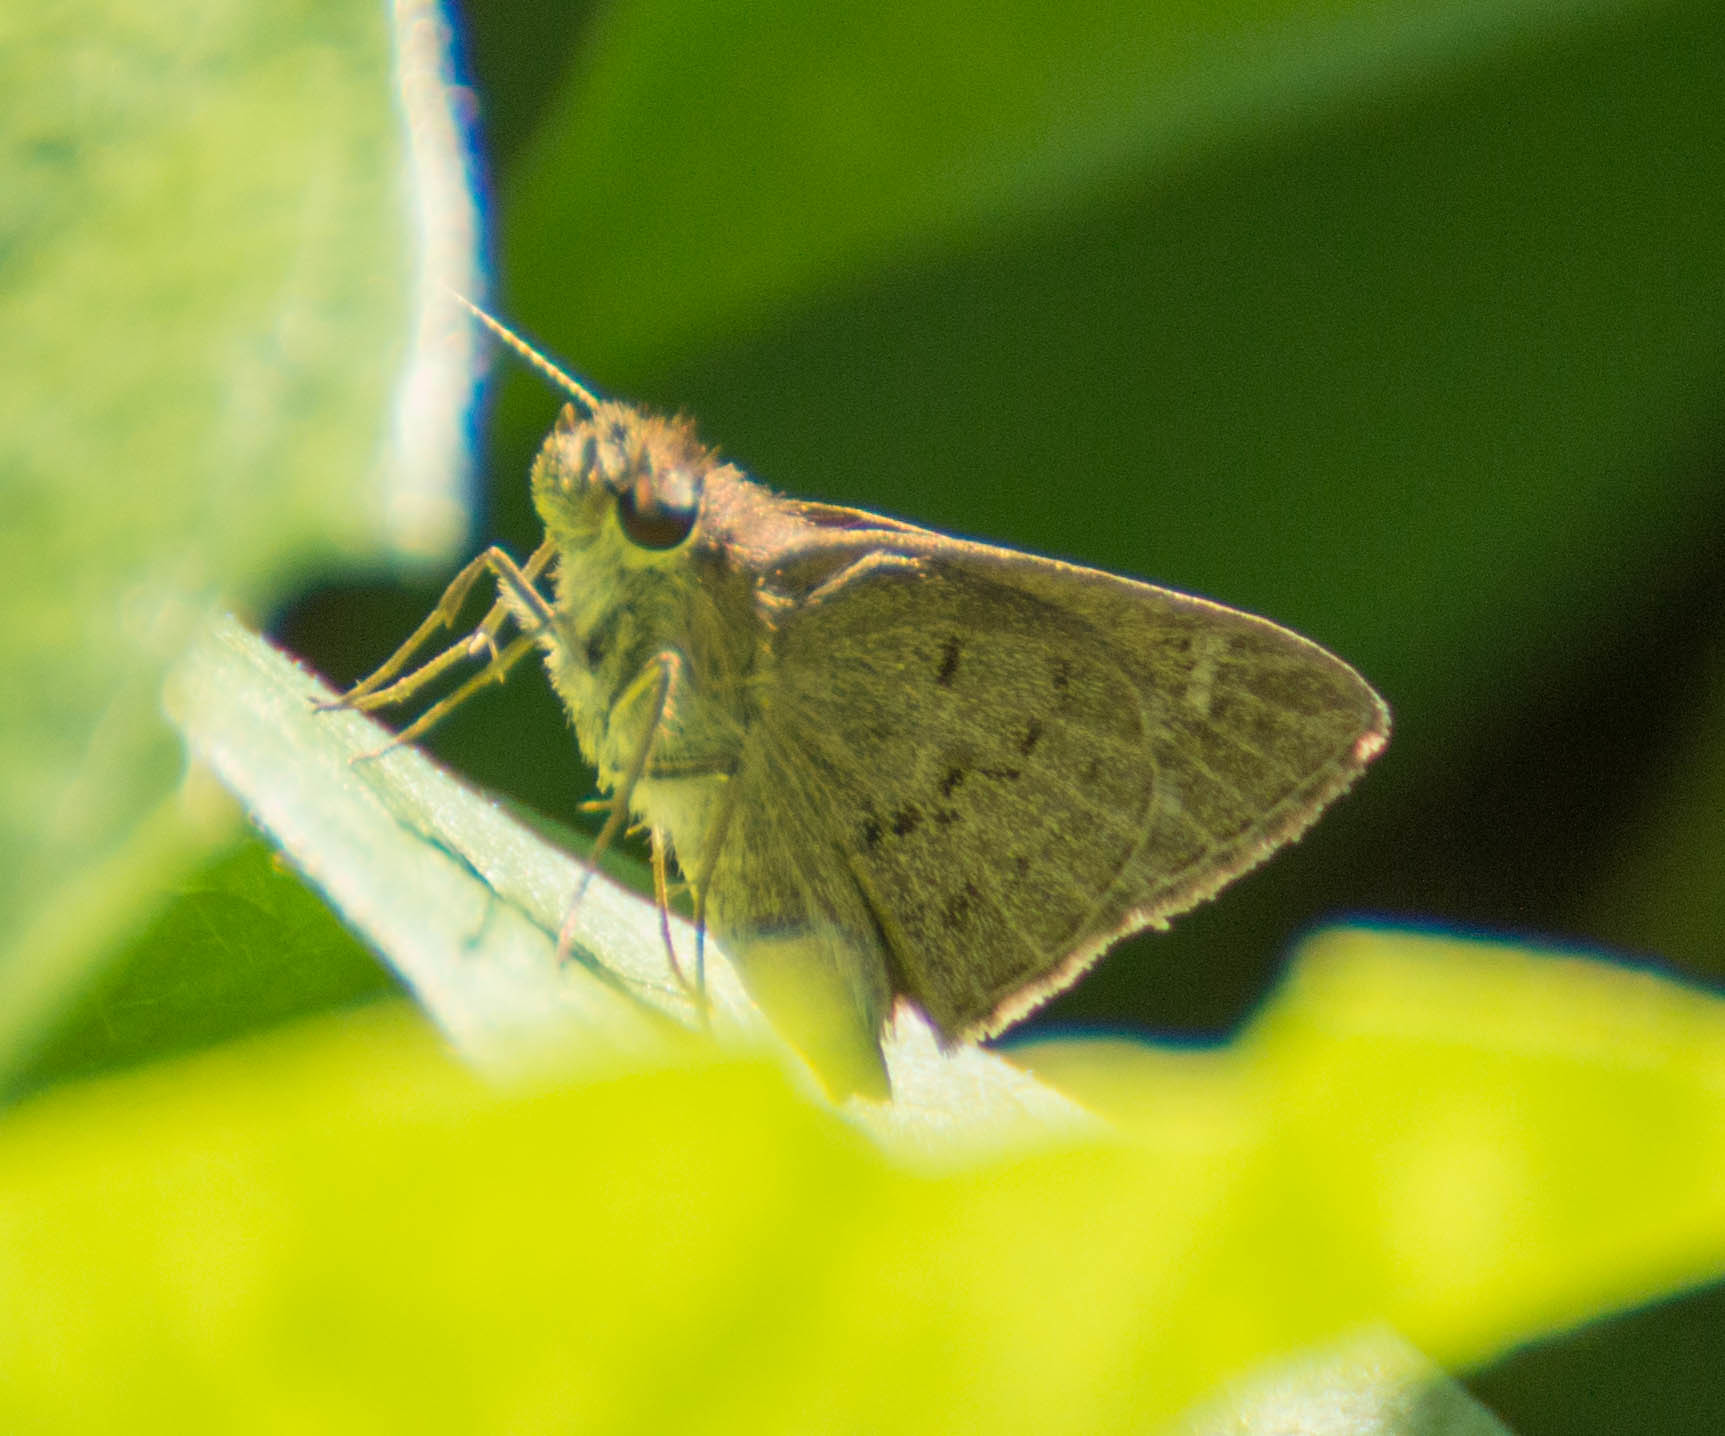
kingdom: Animalia
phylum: Arthropoda
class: Insecta
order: Lepidoptera
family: Hesperiidae
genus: Cymaenes
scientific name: Cymaenes gisca
